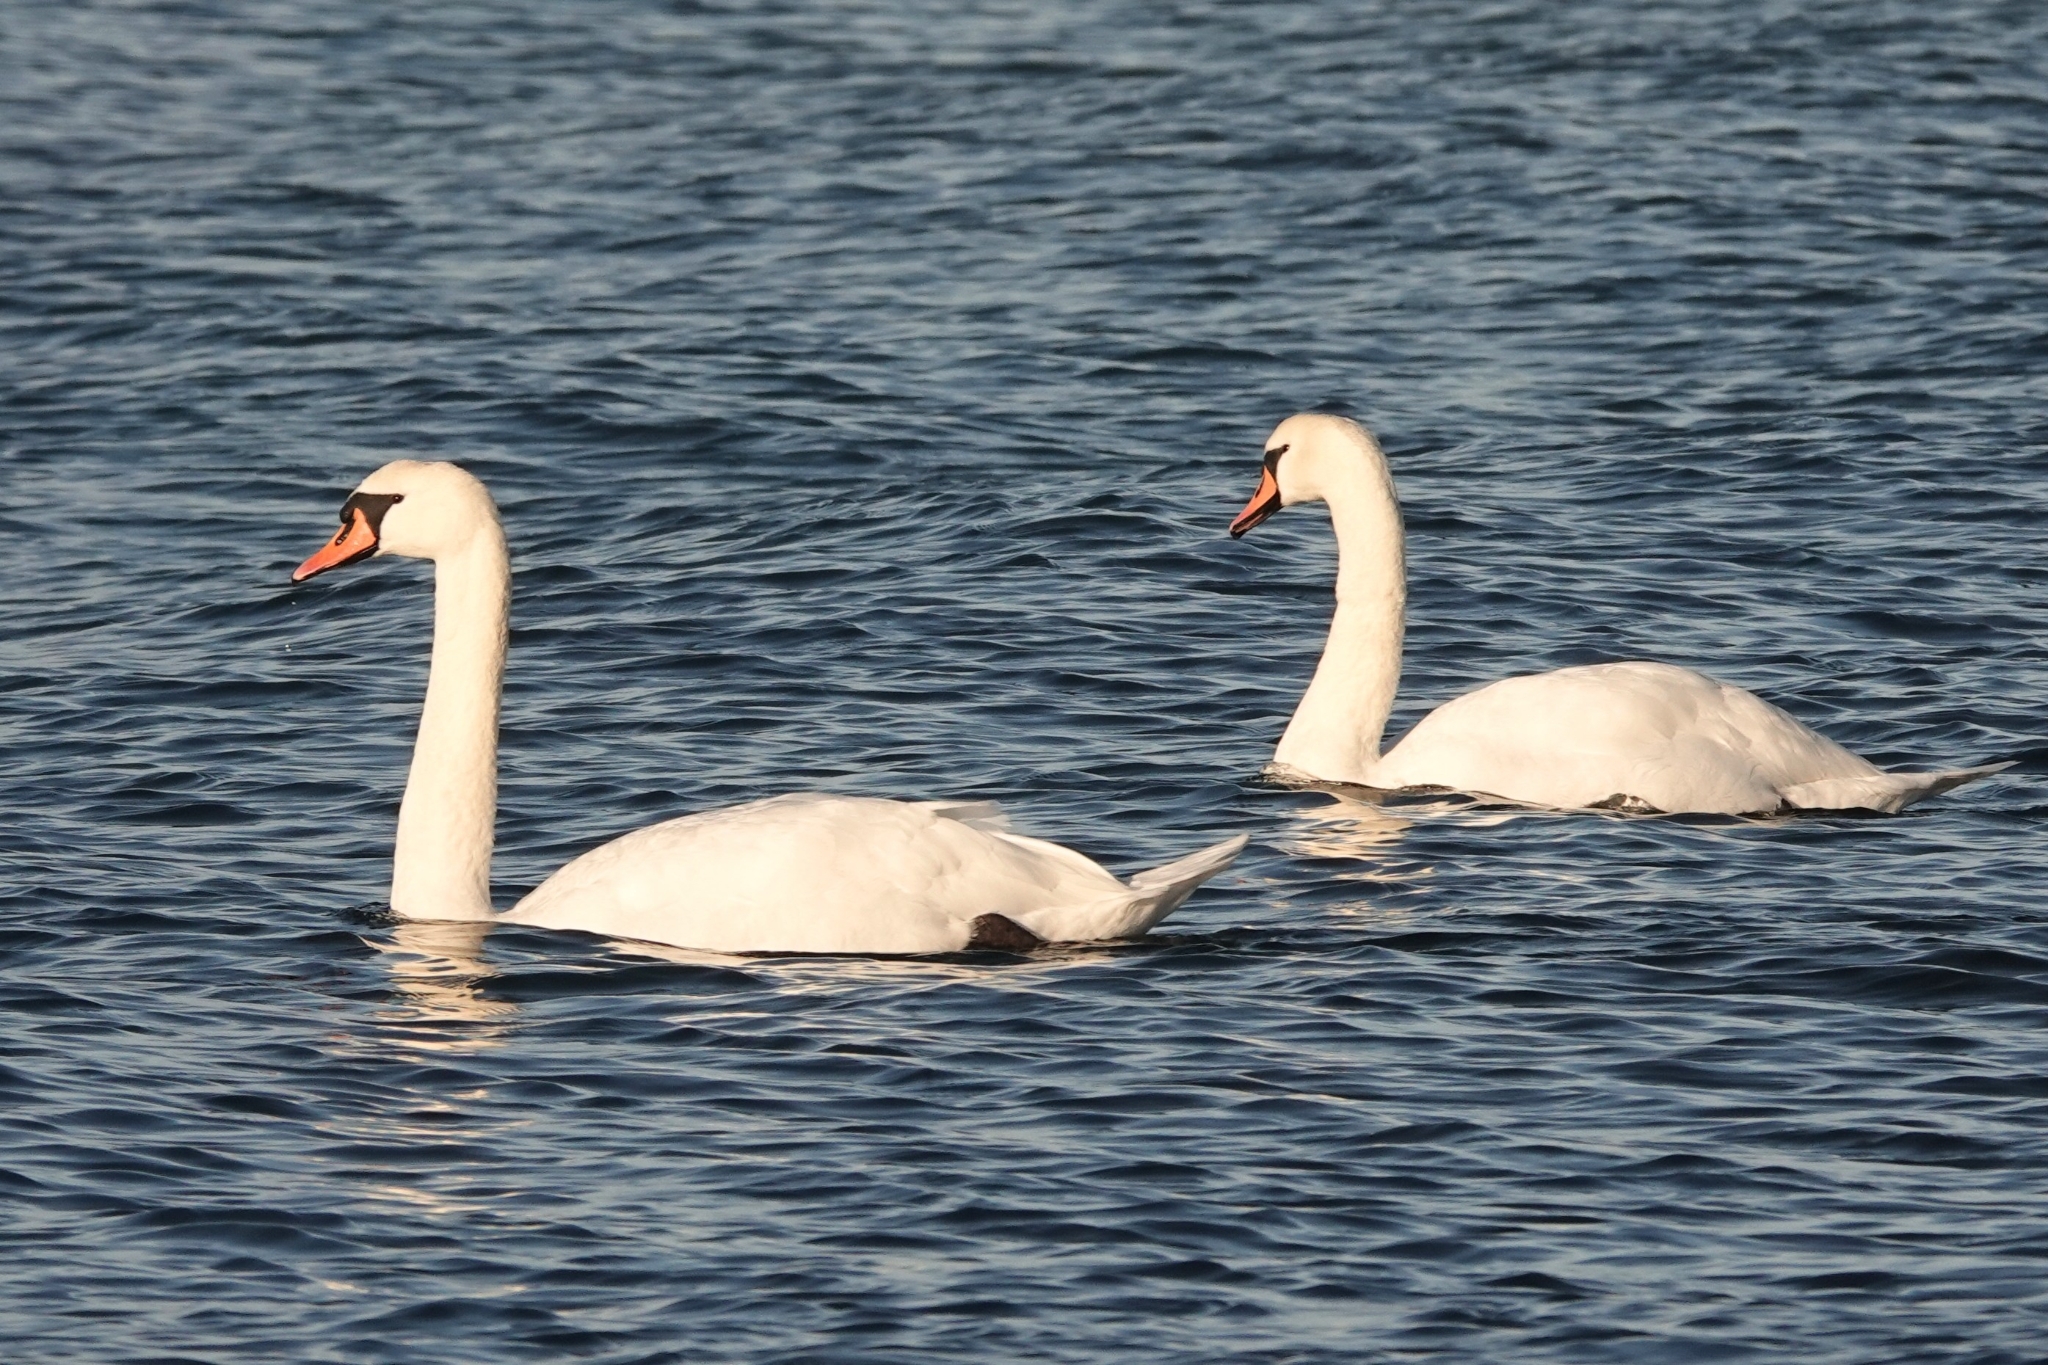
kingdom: Animalia
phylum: Chordata
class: Aves
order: Anseriformes
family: Anatidae
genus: Cygnus
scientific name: Cygnus olor
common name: Mute swan
